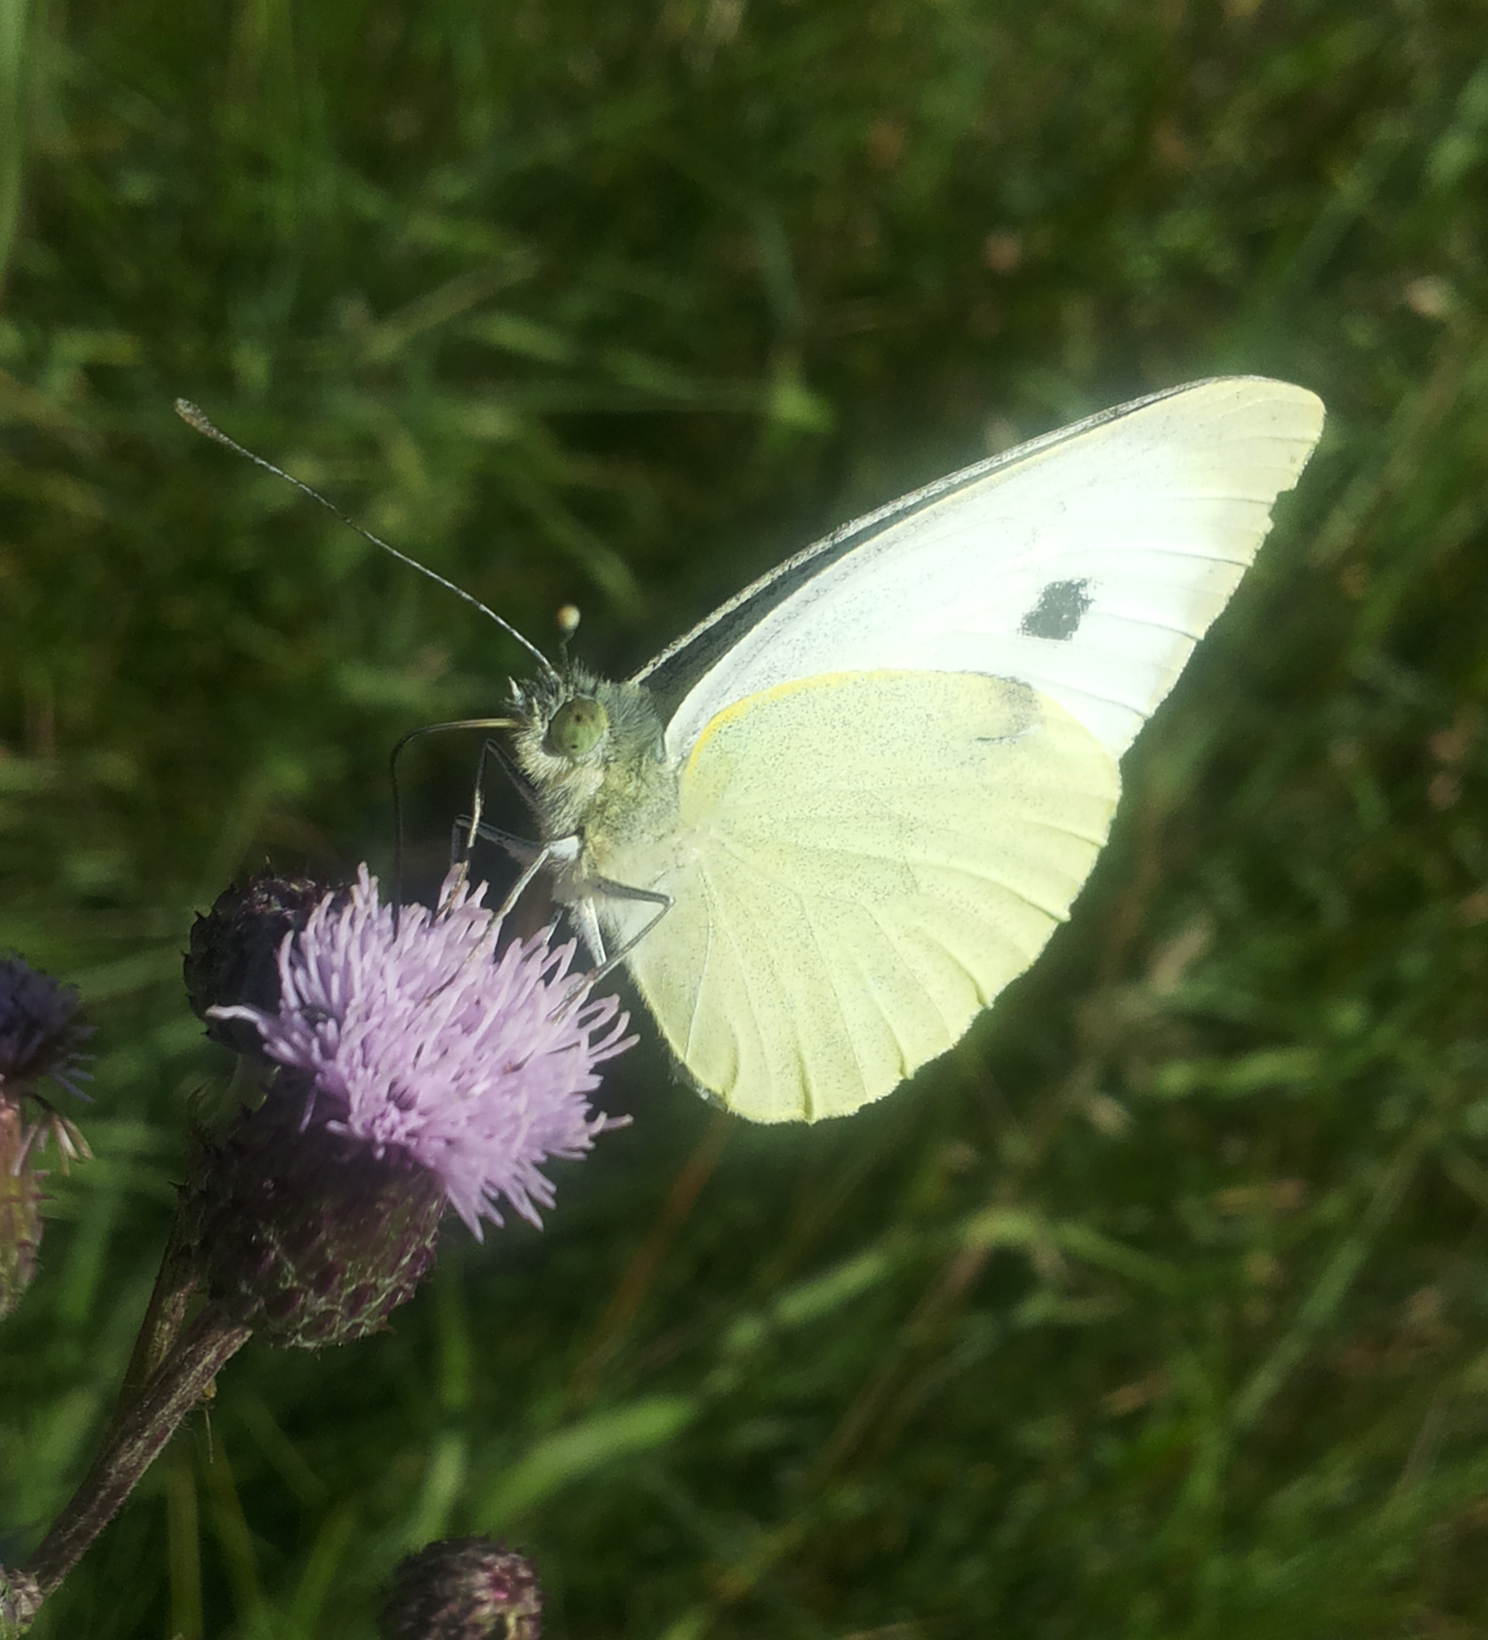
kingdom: Animalia
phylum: Arthropoda
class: Insecta
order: Lepidoptera
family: Pieridae
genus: Pieris
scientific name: Pieris brassicae
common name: Large white
